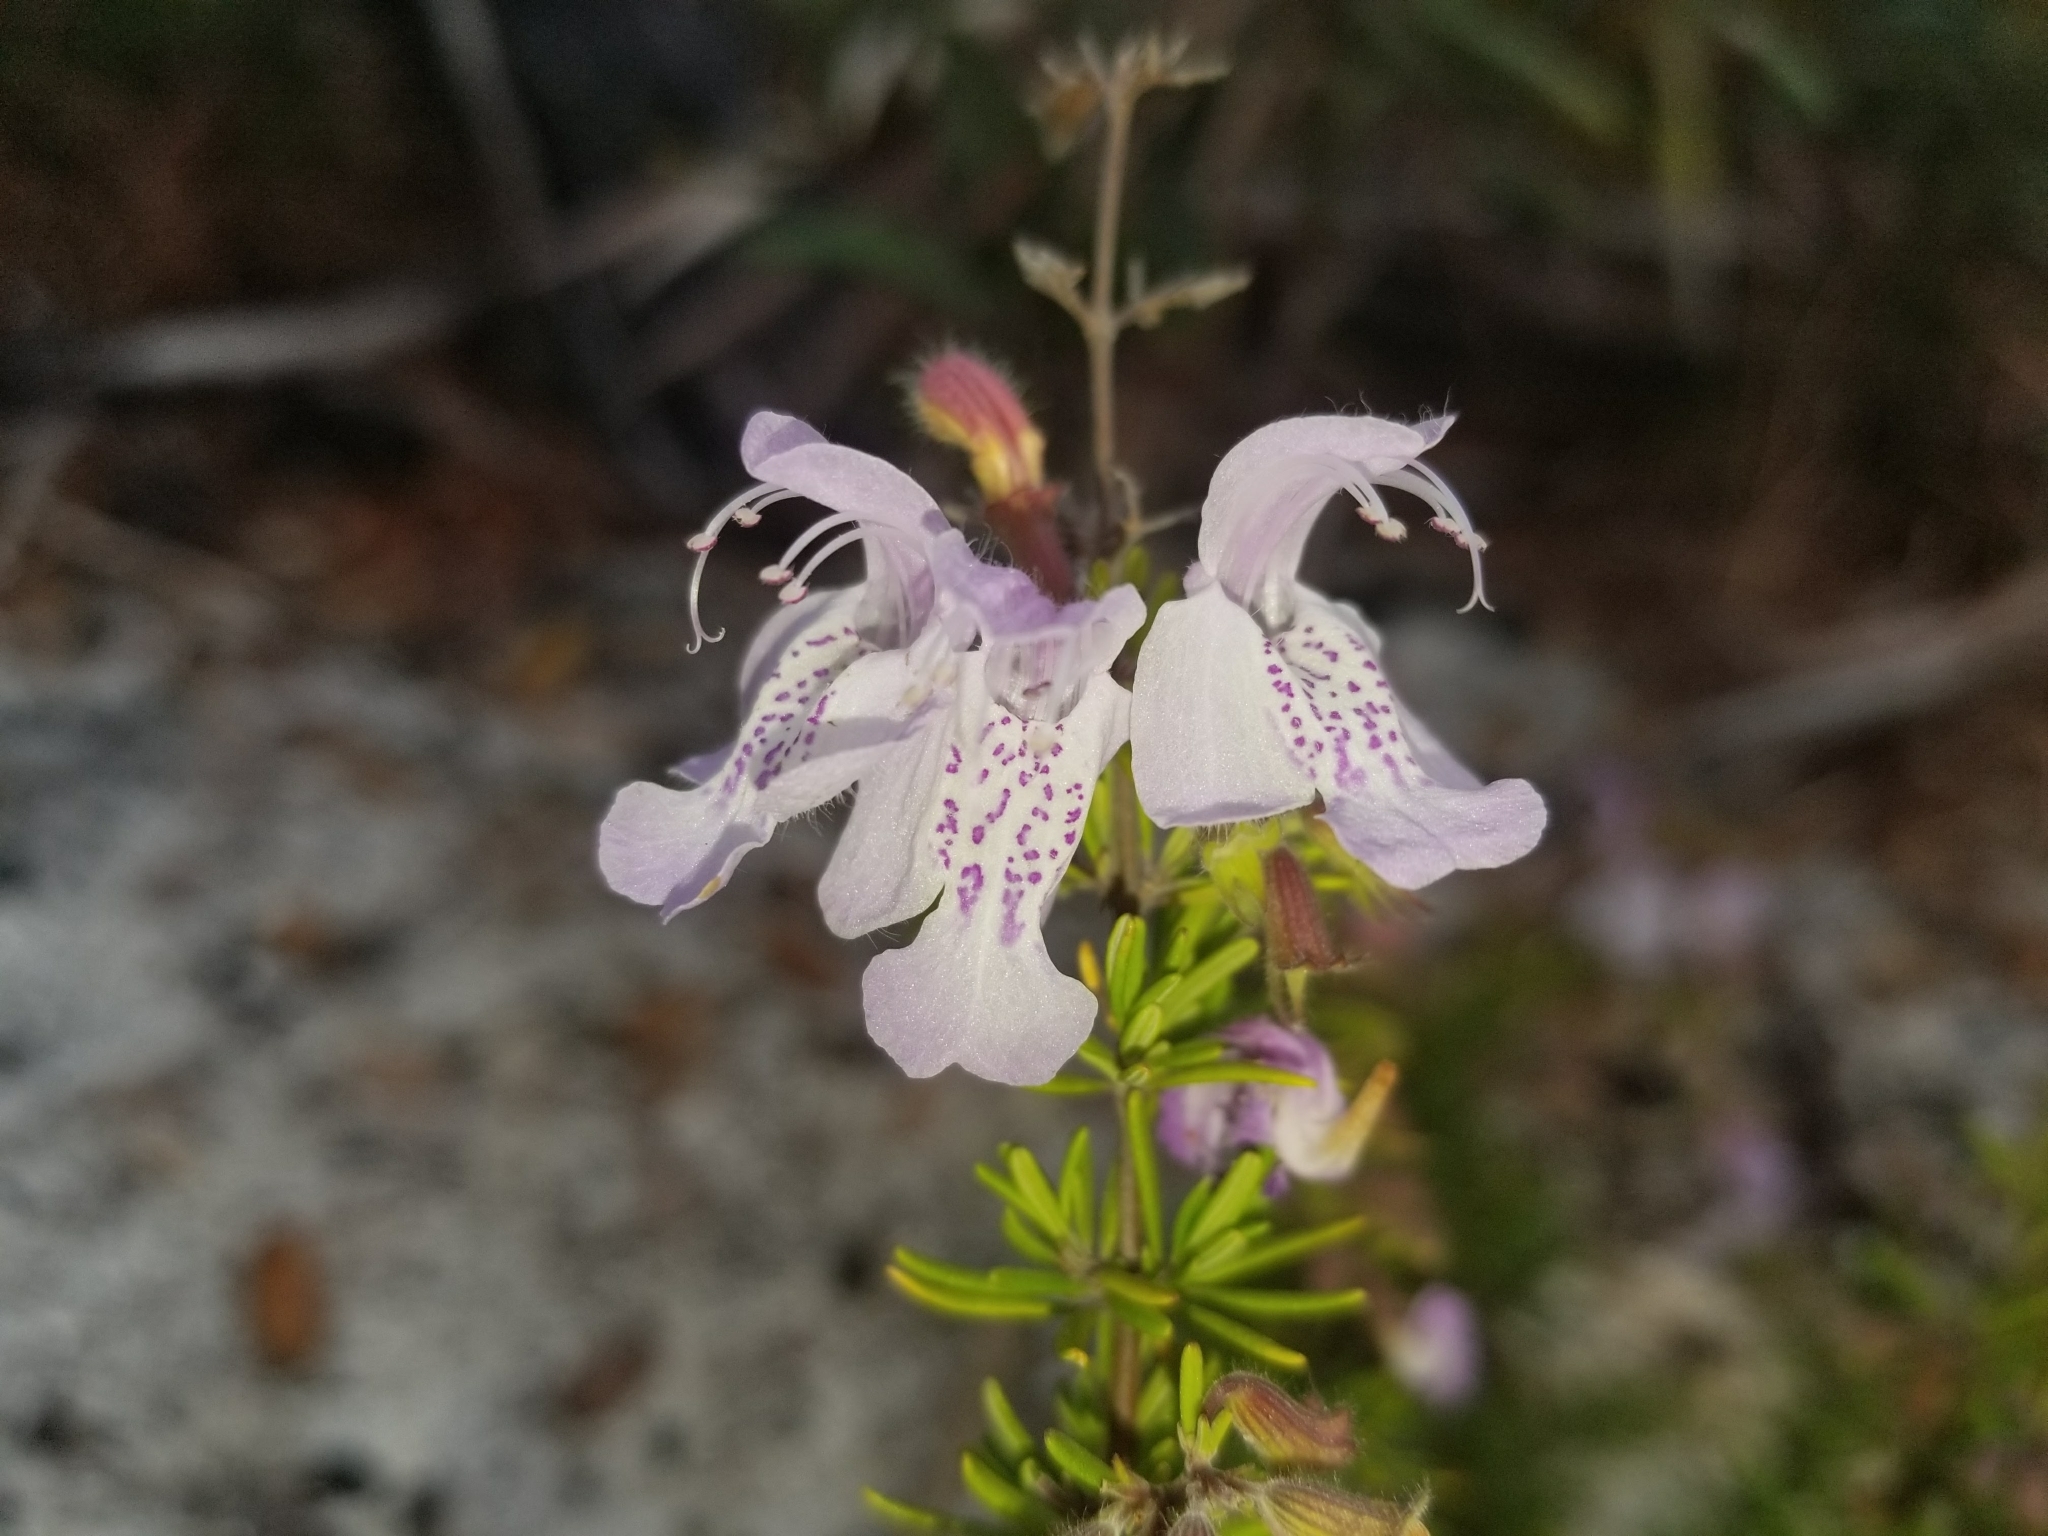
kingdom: Plantae
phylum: Tracheophyta
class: Magnoliopsida
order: Lamiales
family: Lamiaceae
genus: Conradina
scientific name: Conradina grandiflora
